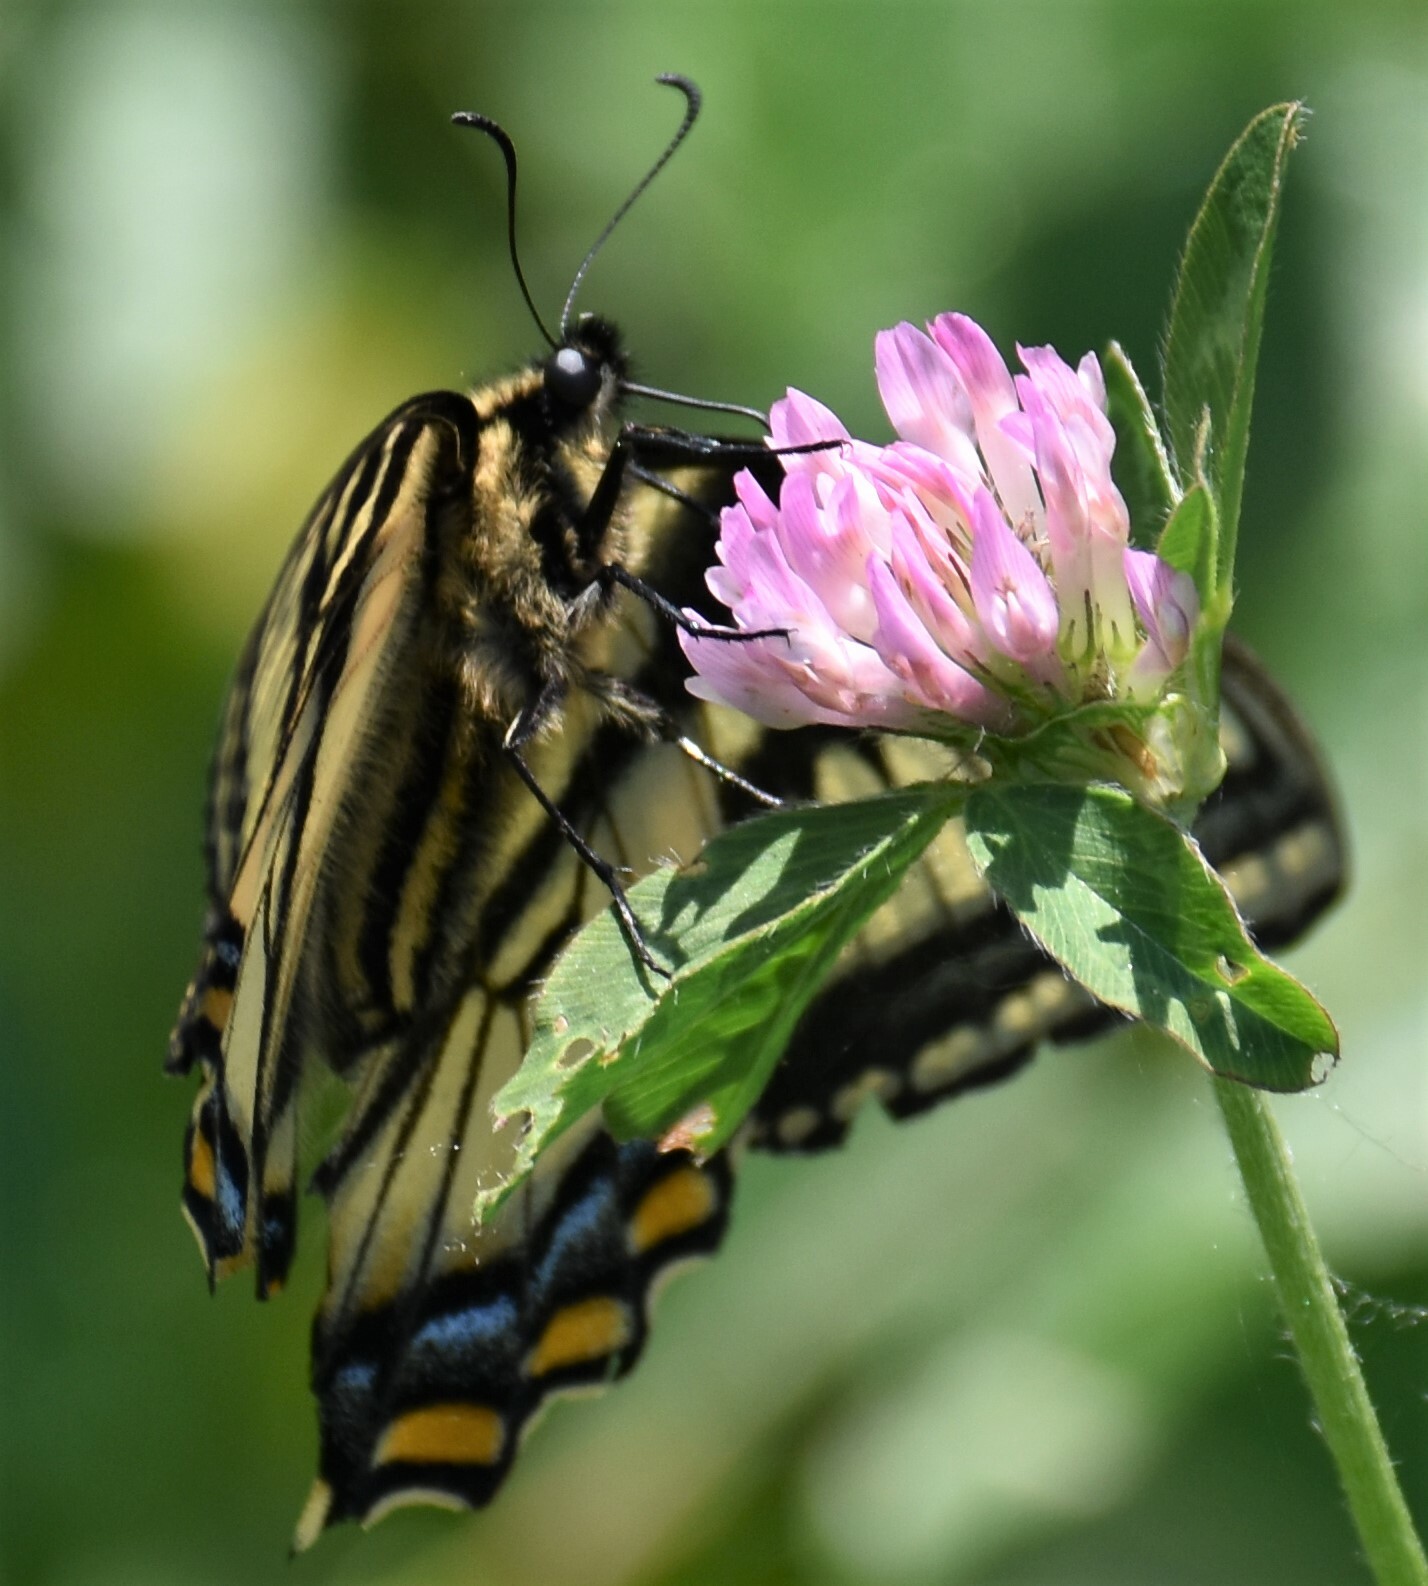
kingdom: Animalia
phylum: Arthropoda
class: Insecta
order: Lepidoptera
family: Papilionidae
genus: Papilio
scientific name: Papilio canadensis
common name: Canadian tiger swallowtail
